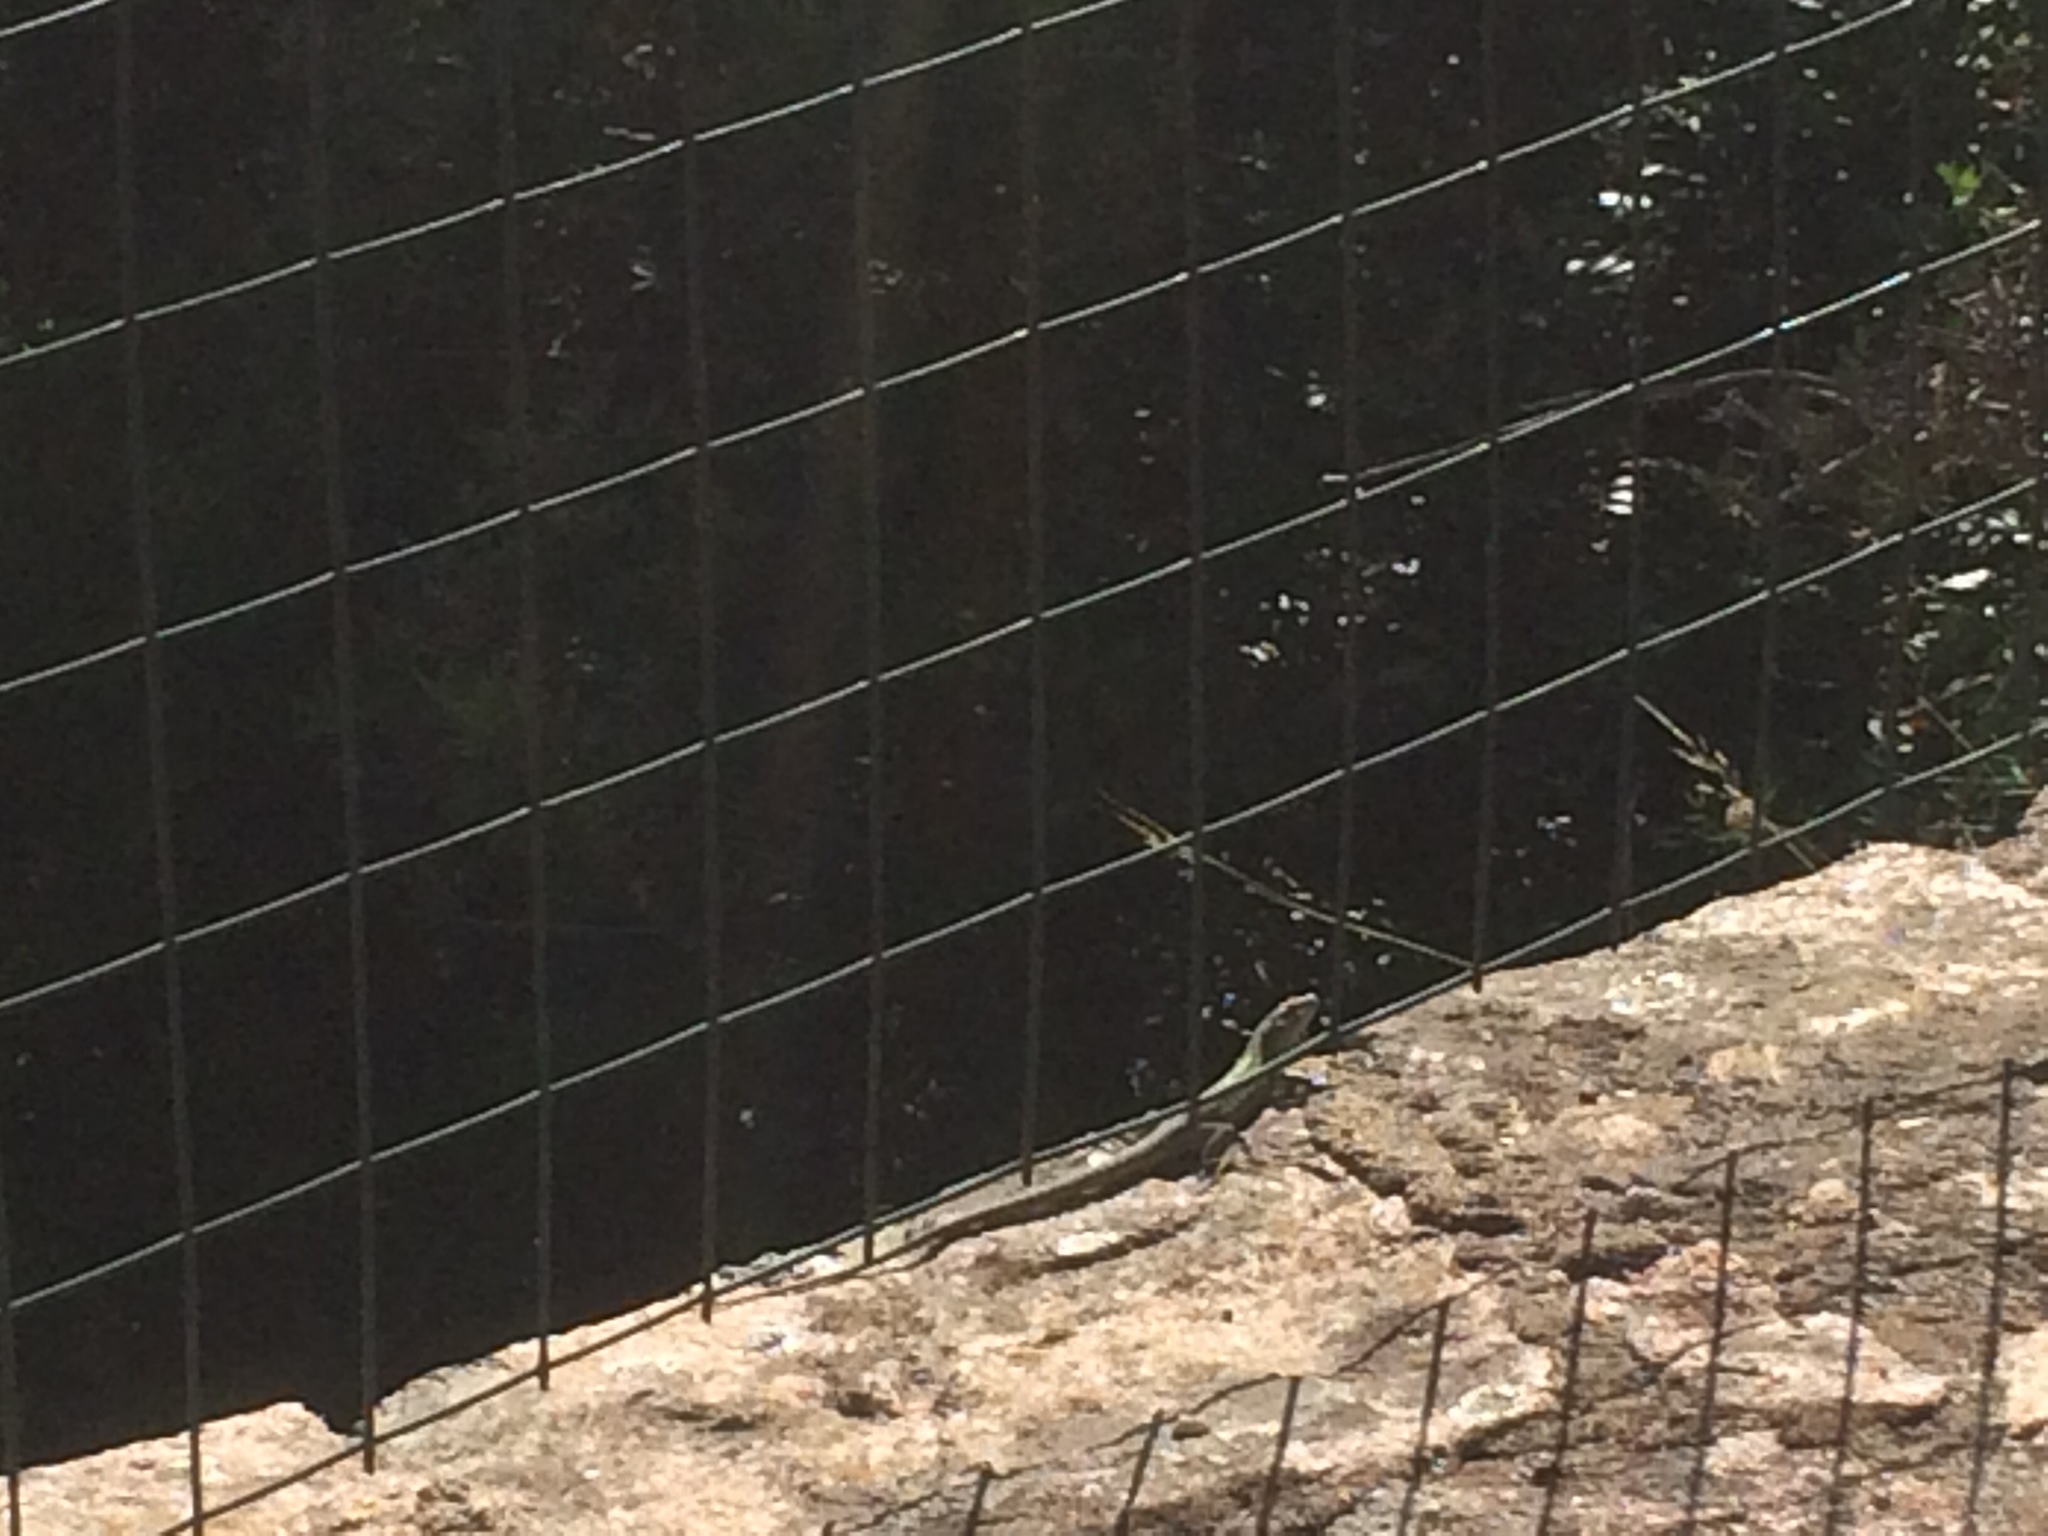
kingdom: Animalia
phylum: Chordata
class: Squamata
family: Lacertidae
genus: Podarcis
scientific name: Podarcis siculus
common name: Italian wall lizard
